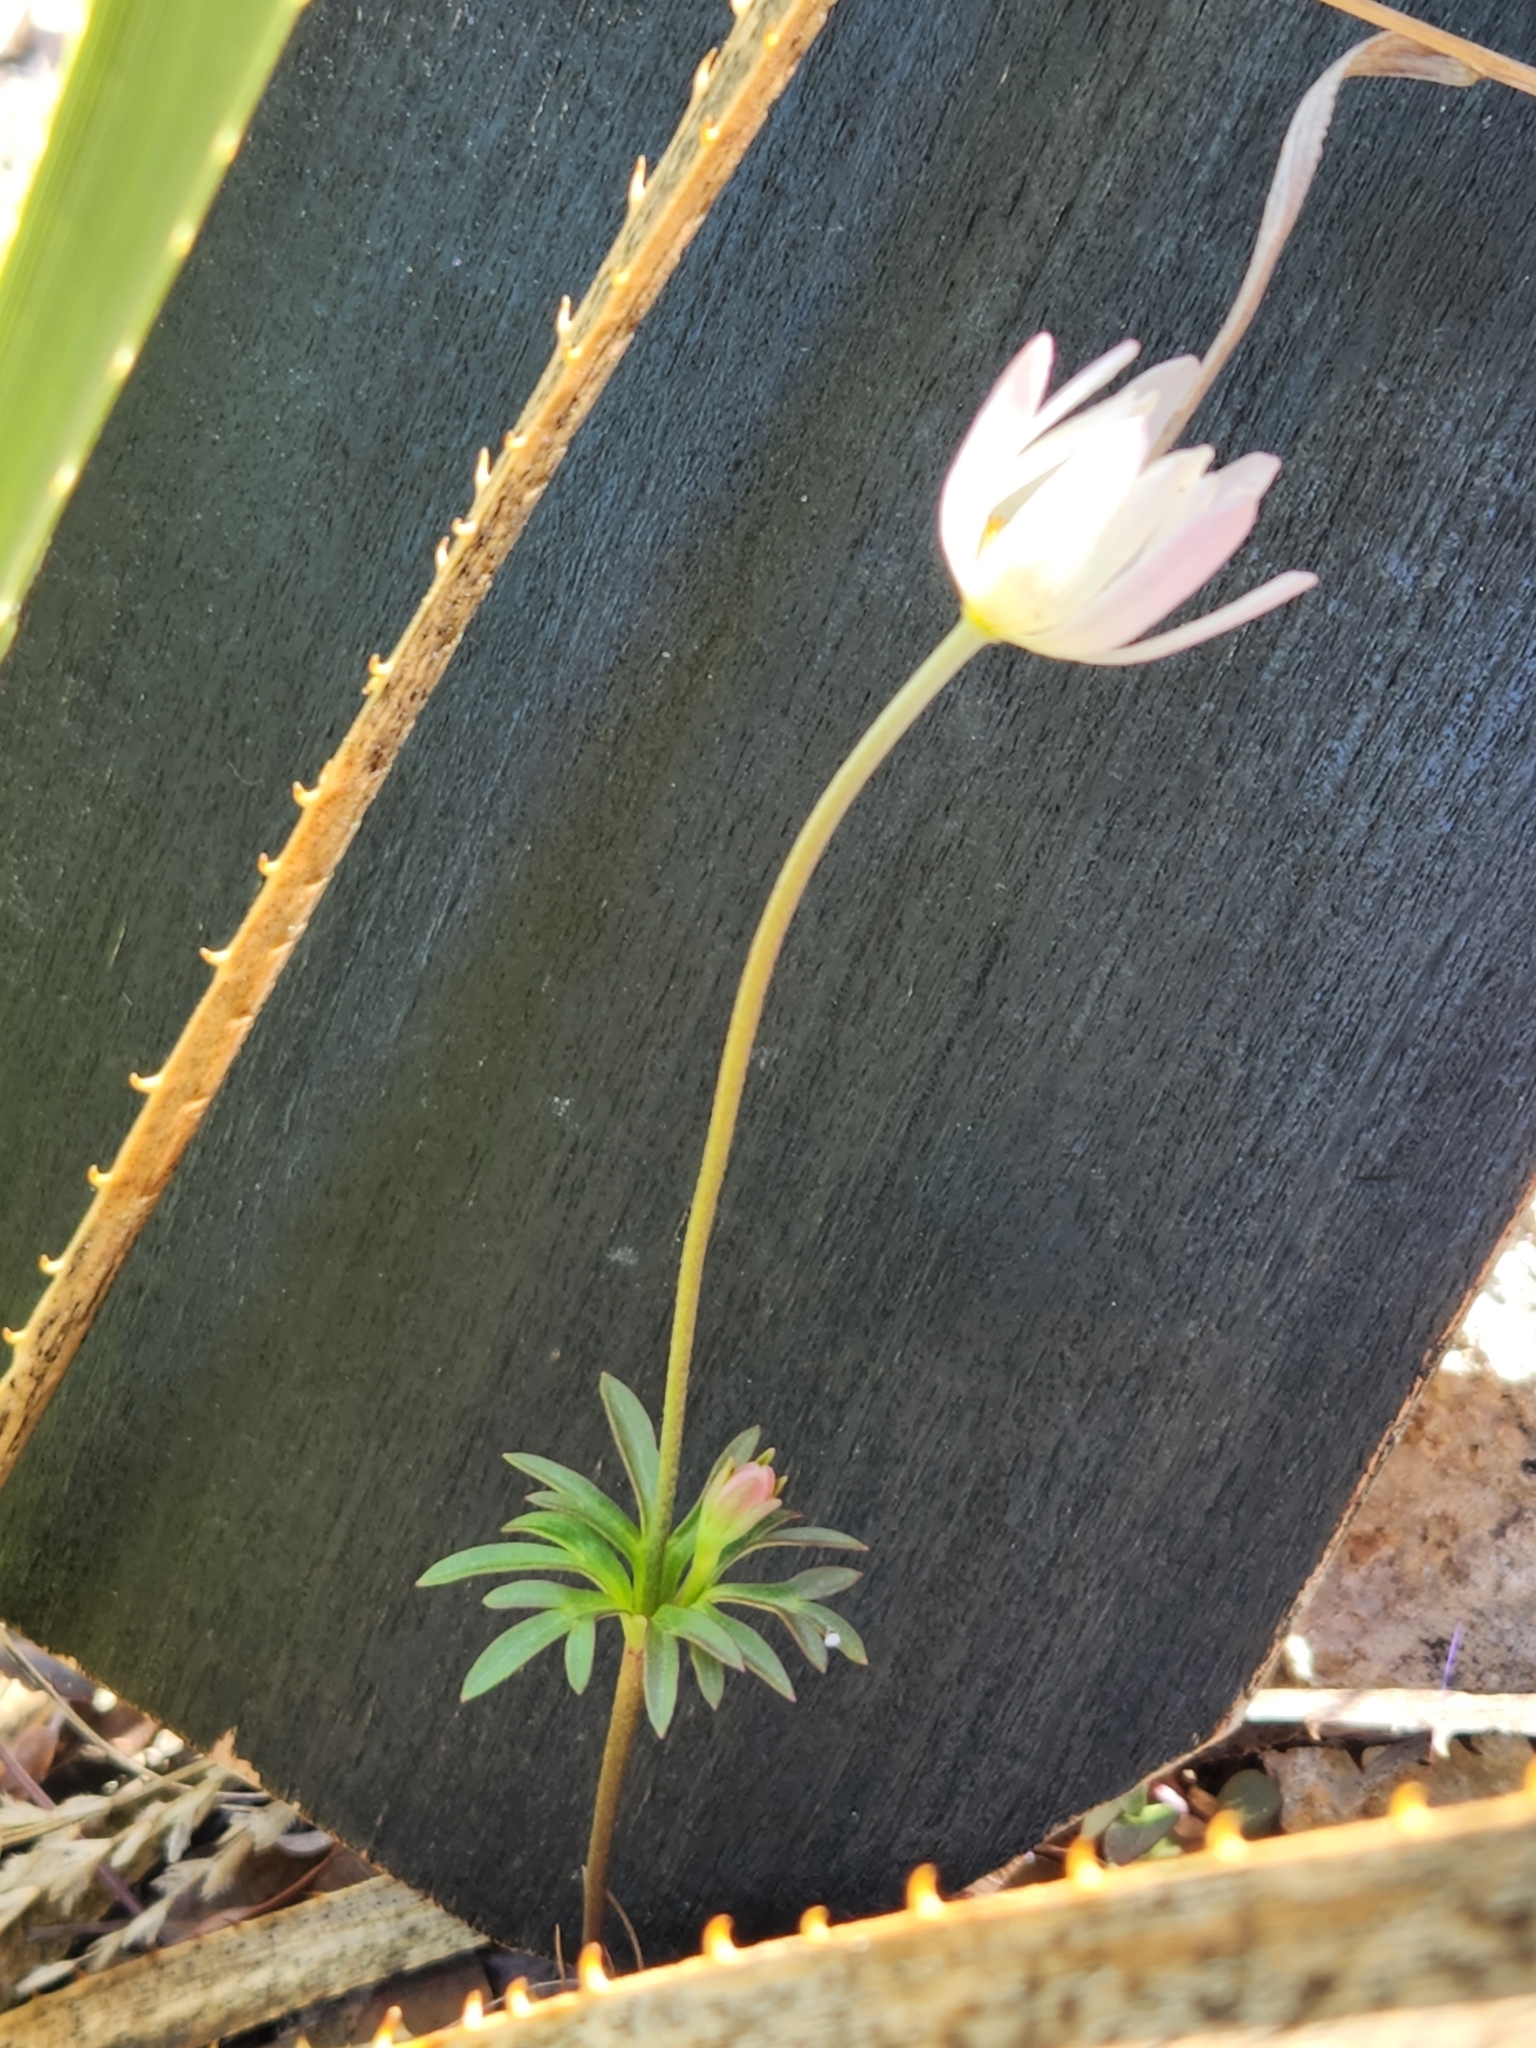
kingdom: Plantae
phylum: Tracheophyta
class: Magnoliopsida
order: Ranunculales
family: Ranunculaceae
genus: Anemone
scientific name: Anemone edwardsiana
